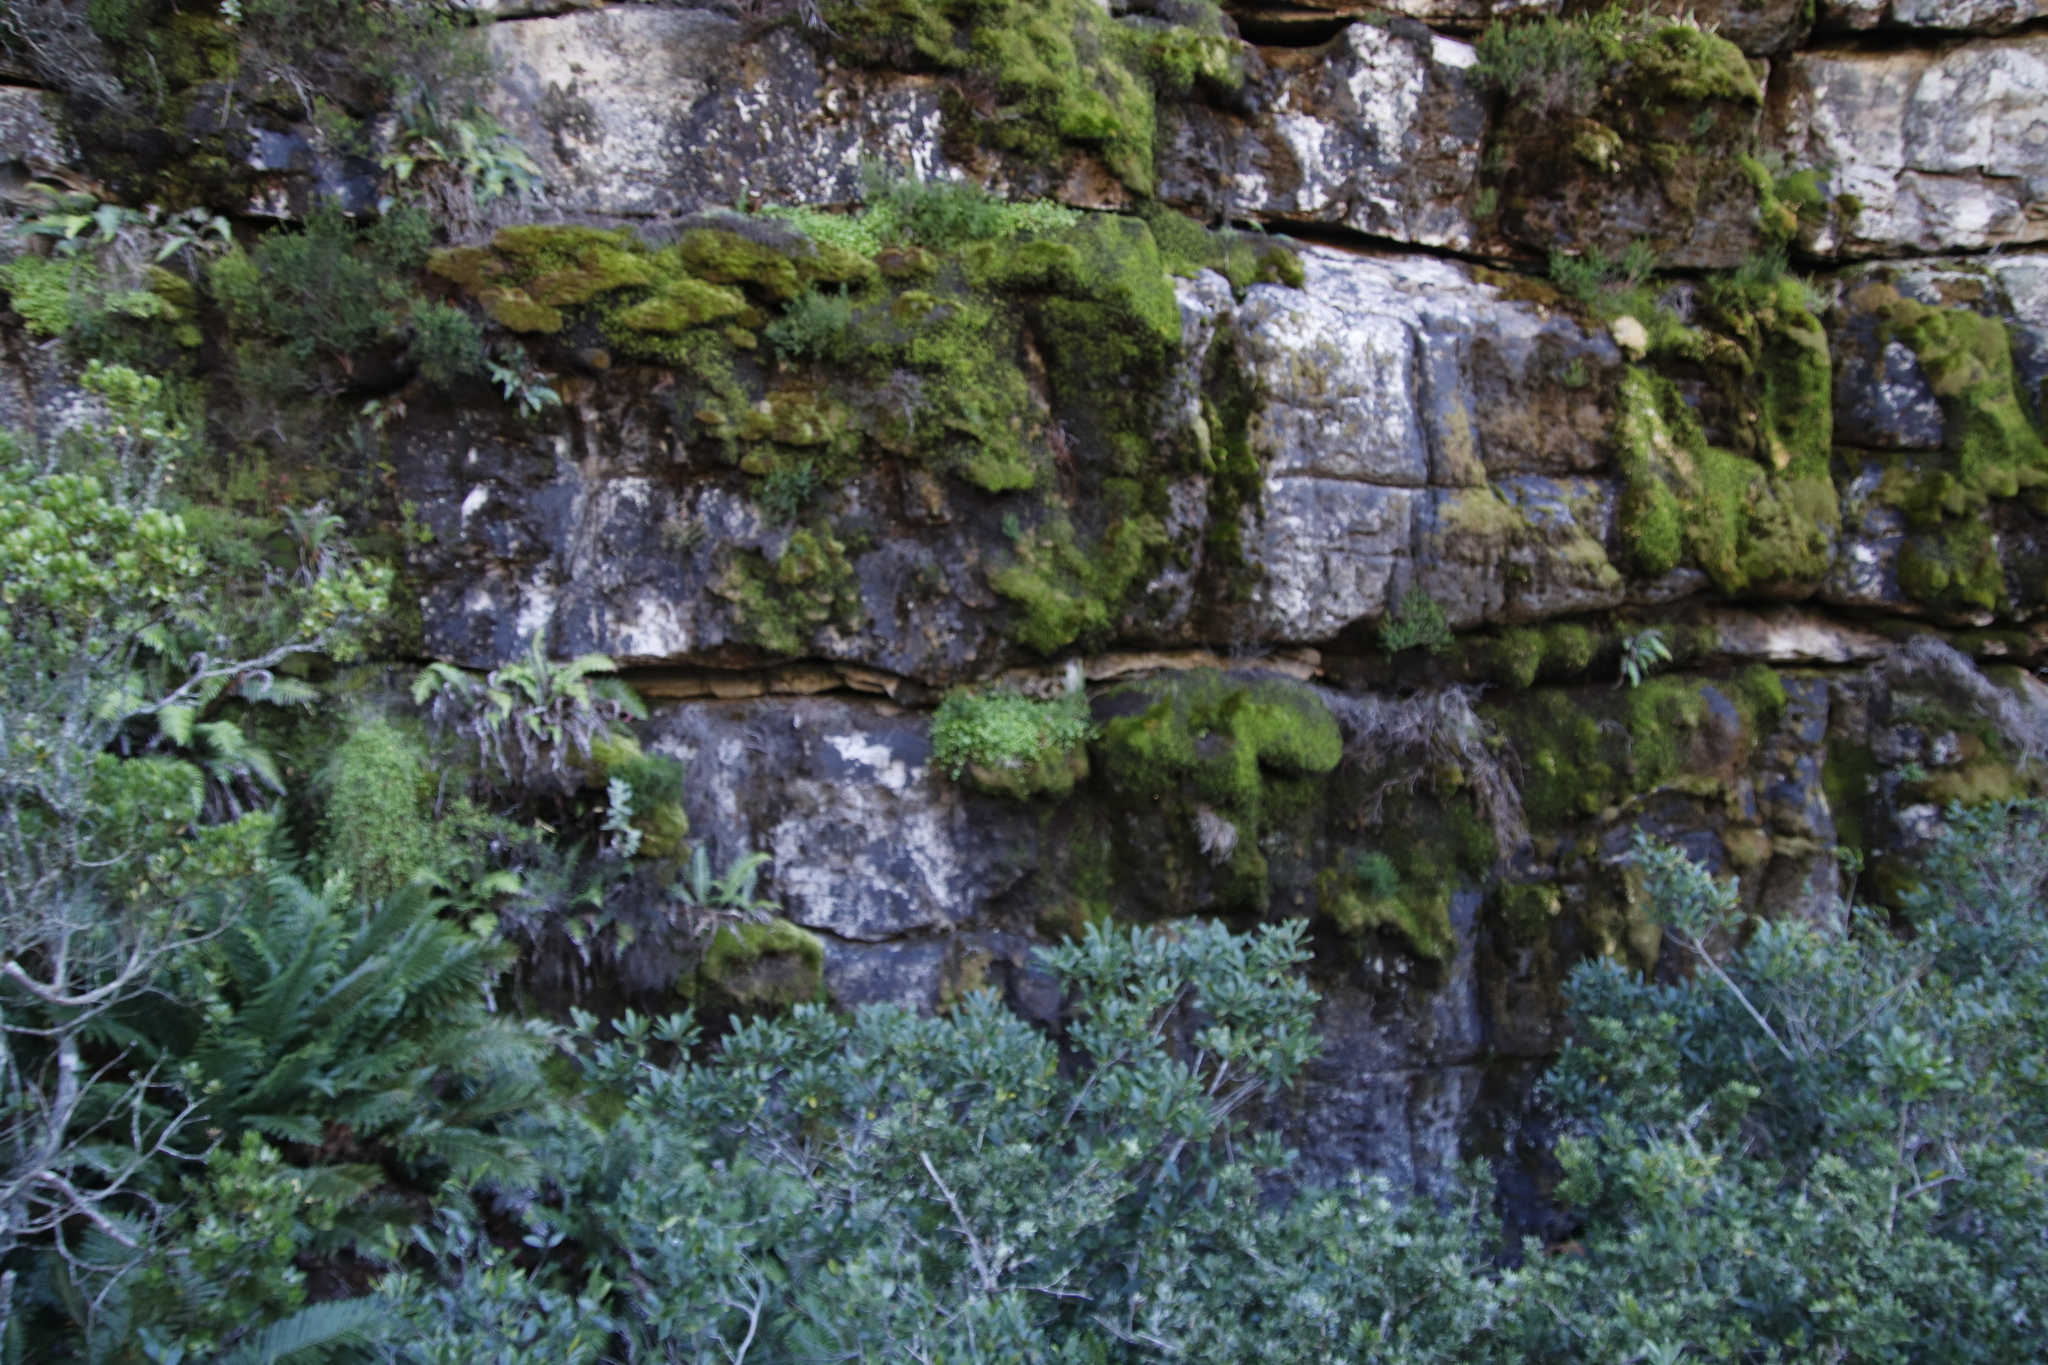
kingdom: Plantae
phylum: Tracheophyta
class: Magnoliopsida
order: Apiales
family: Apiaceae
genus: Centella
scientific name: Centella eriantha
